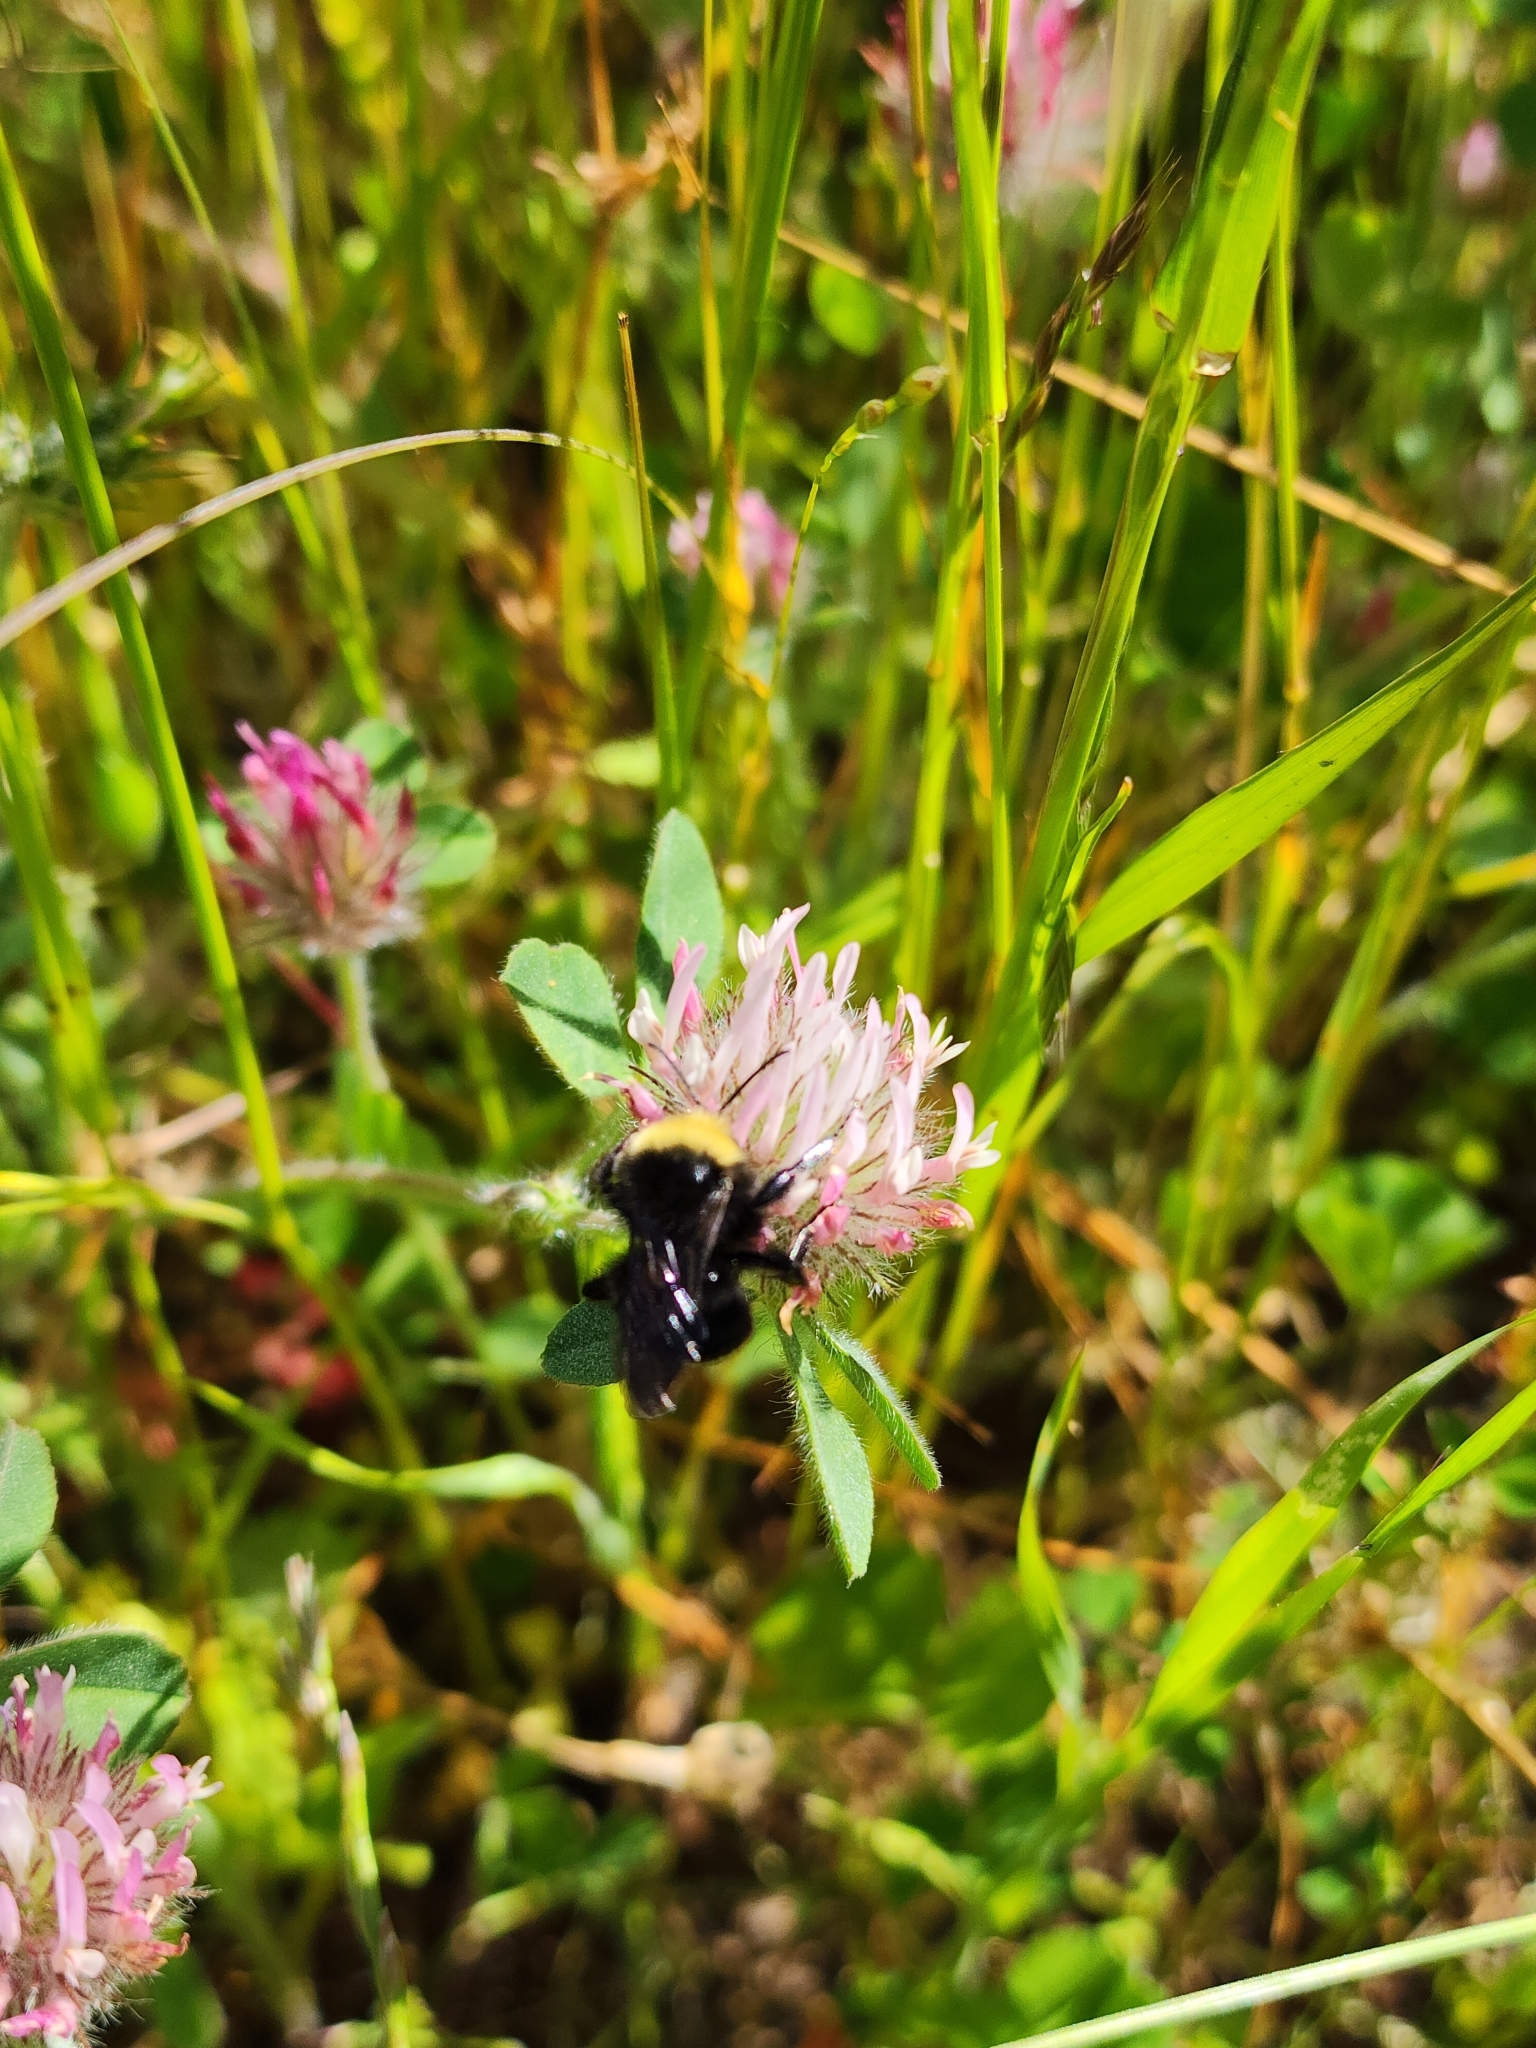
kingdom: Animalia
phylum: Arthropoda
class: Insecta
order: Hymenoptera
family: Apidae
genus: Bombus
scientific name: Bombus vosnesenskii
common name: Vosnesensky bumble bee
